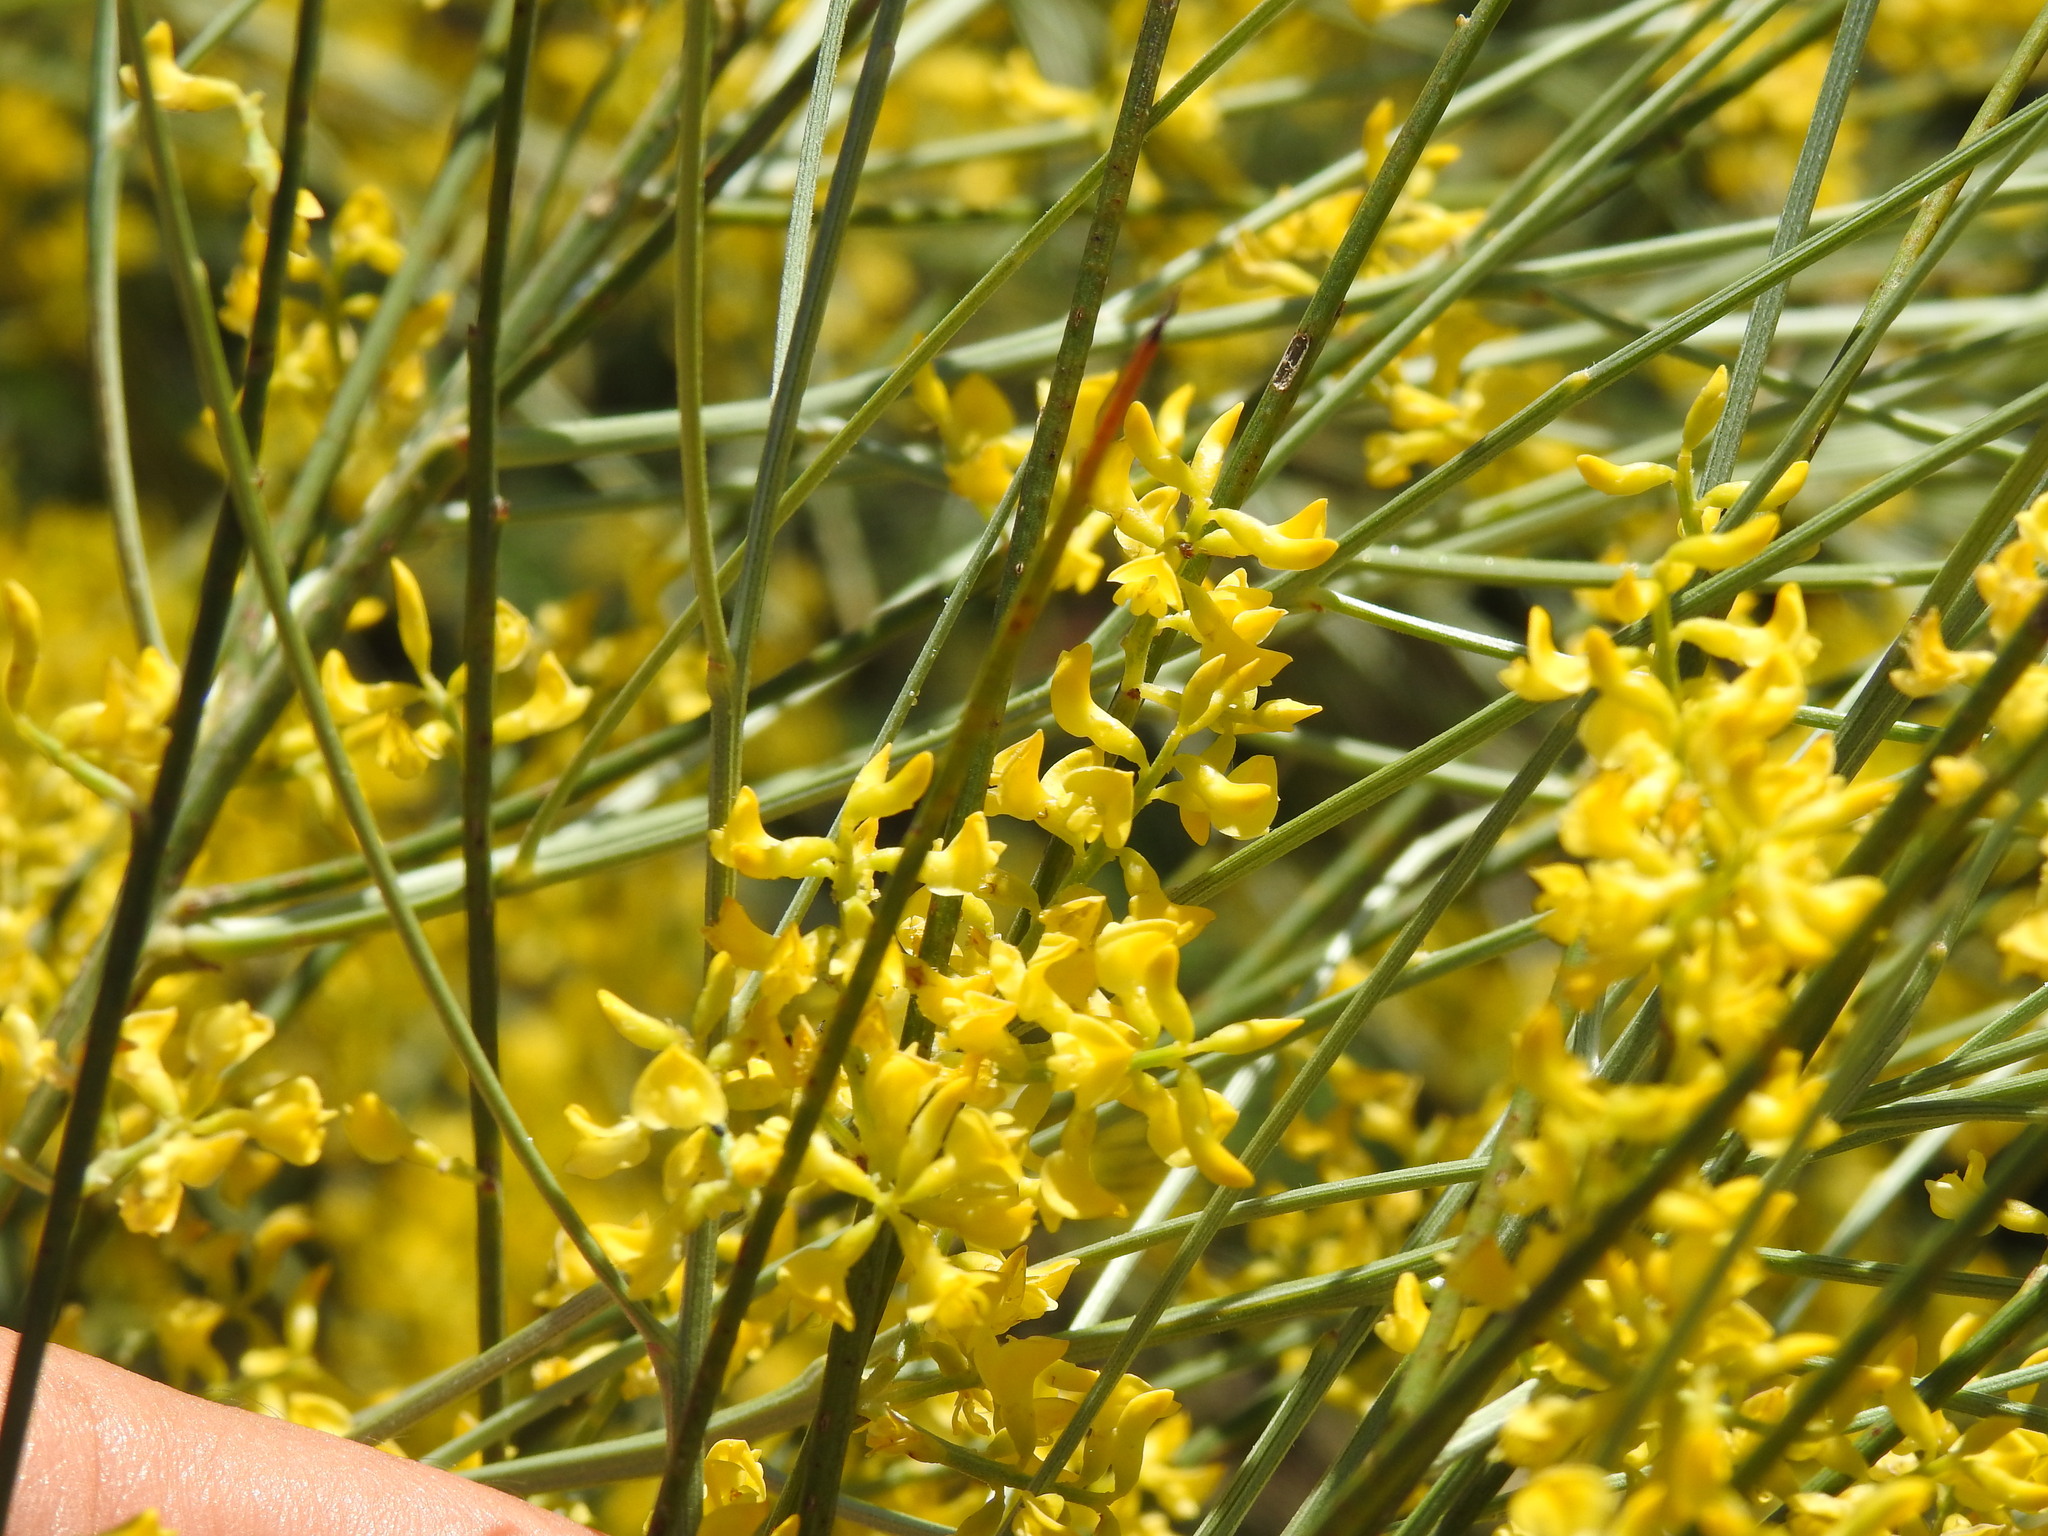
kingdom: Plantae
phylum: Tracheophyta
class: Magnoliopsida
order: Fabales
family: Fabaceae
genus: Retama
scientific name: Retama sphaerocarpa
